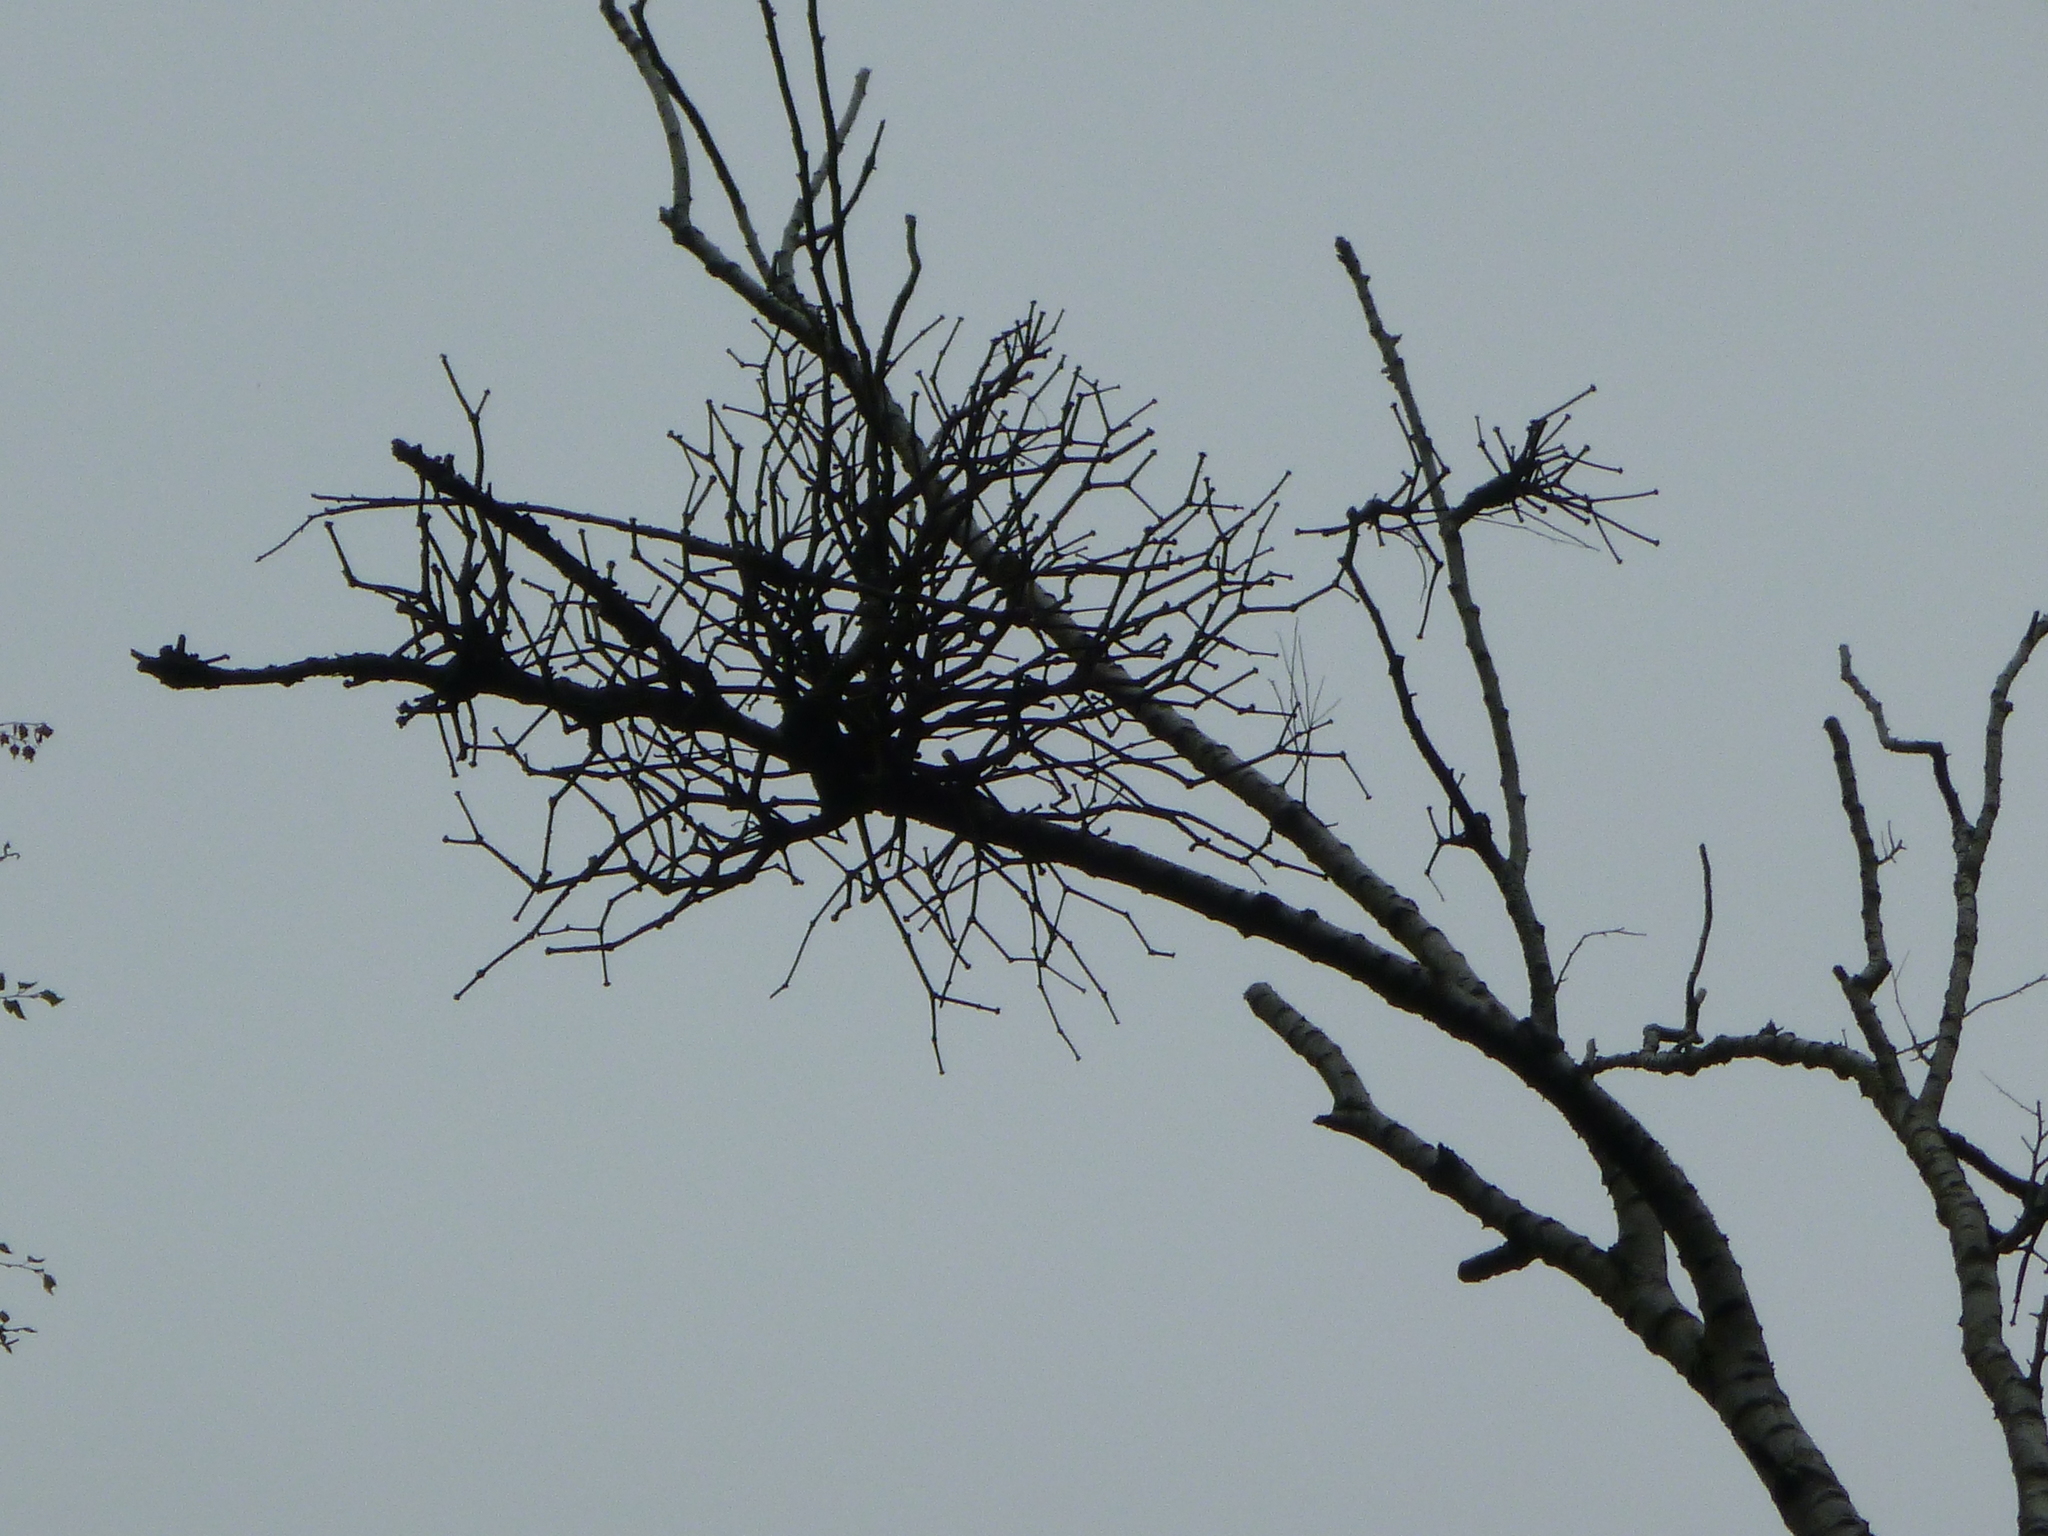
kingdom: Plantae
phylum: Tracheophyta
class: Magnoliopsida
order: Santalales
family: Viscaceae
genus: Viscum
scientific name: Viscum album
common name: Mistletoe
